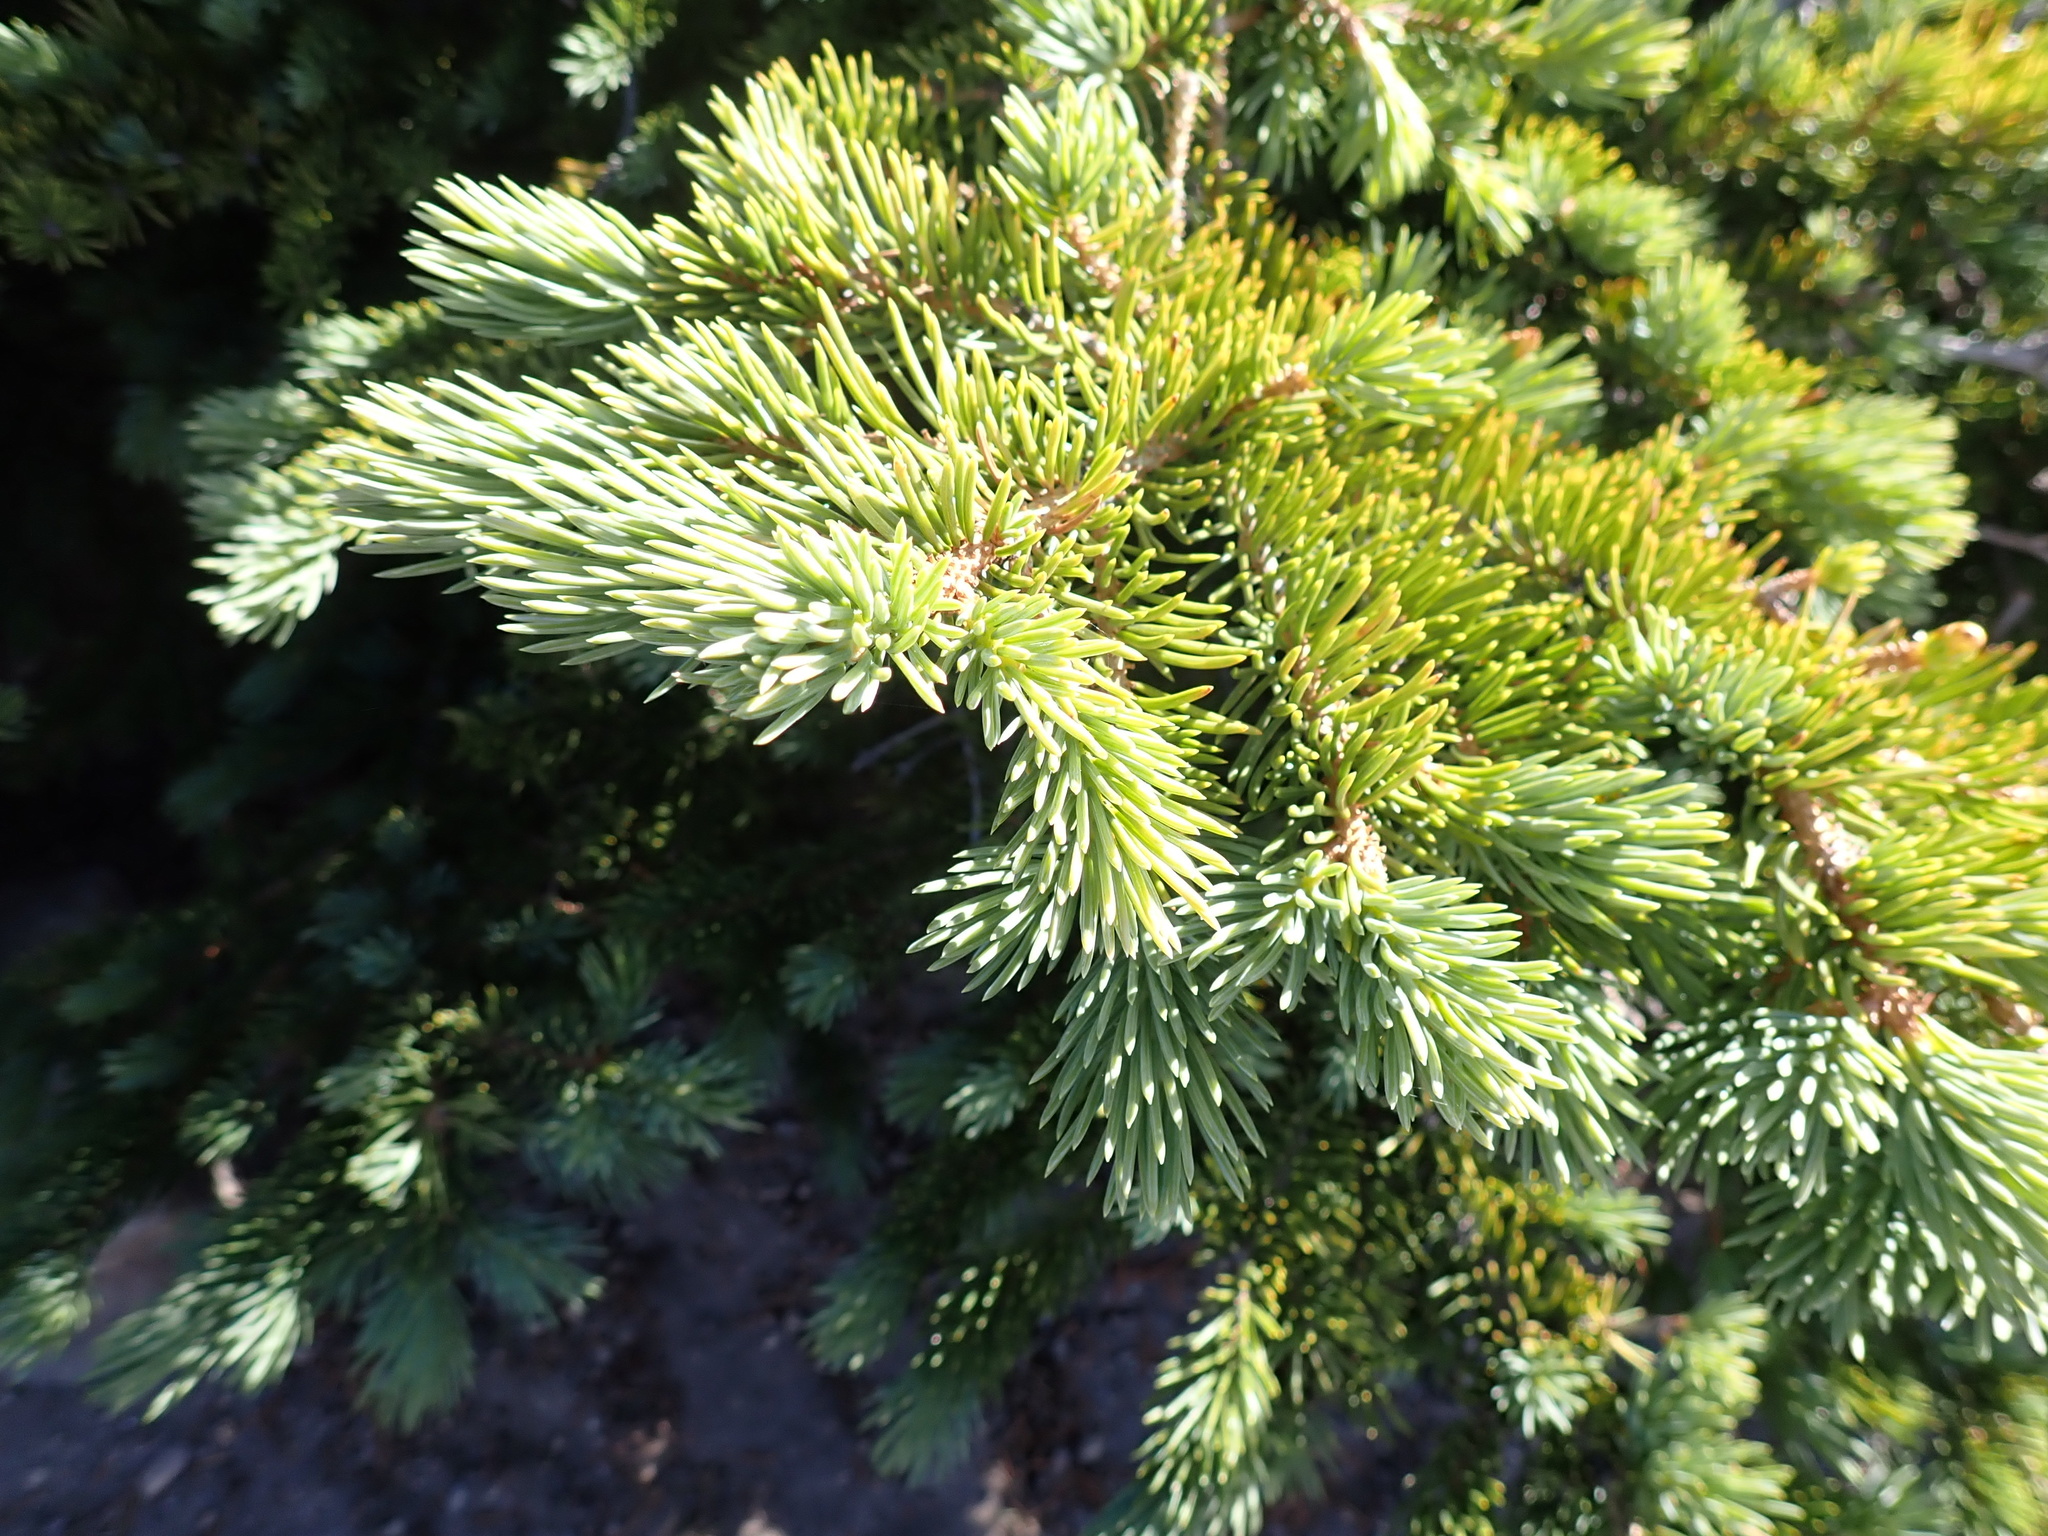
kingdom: Plantae
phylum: Tracheophyta
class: Pinopsida
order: Pinales
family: Pinaceae
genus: Picea
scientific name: Picea engelmannii
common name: Engelmann spruce
